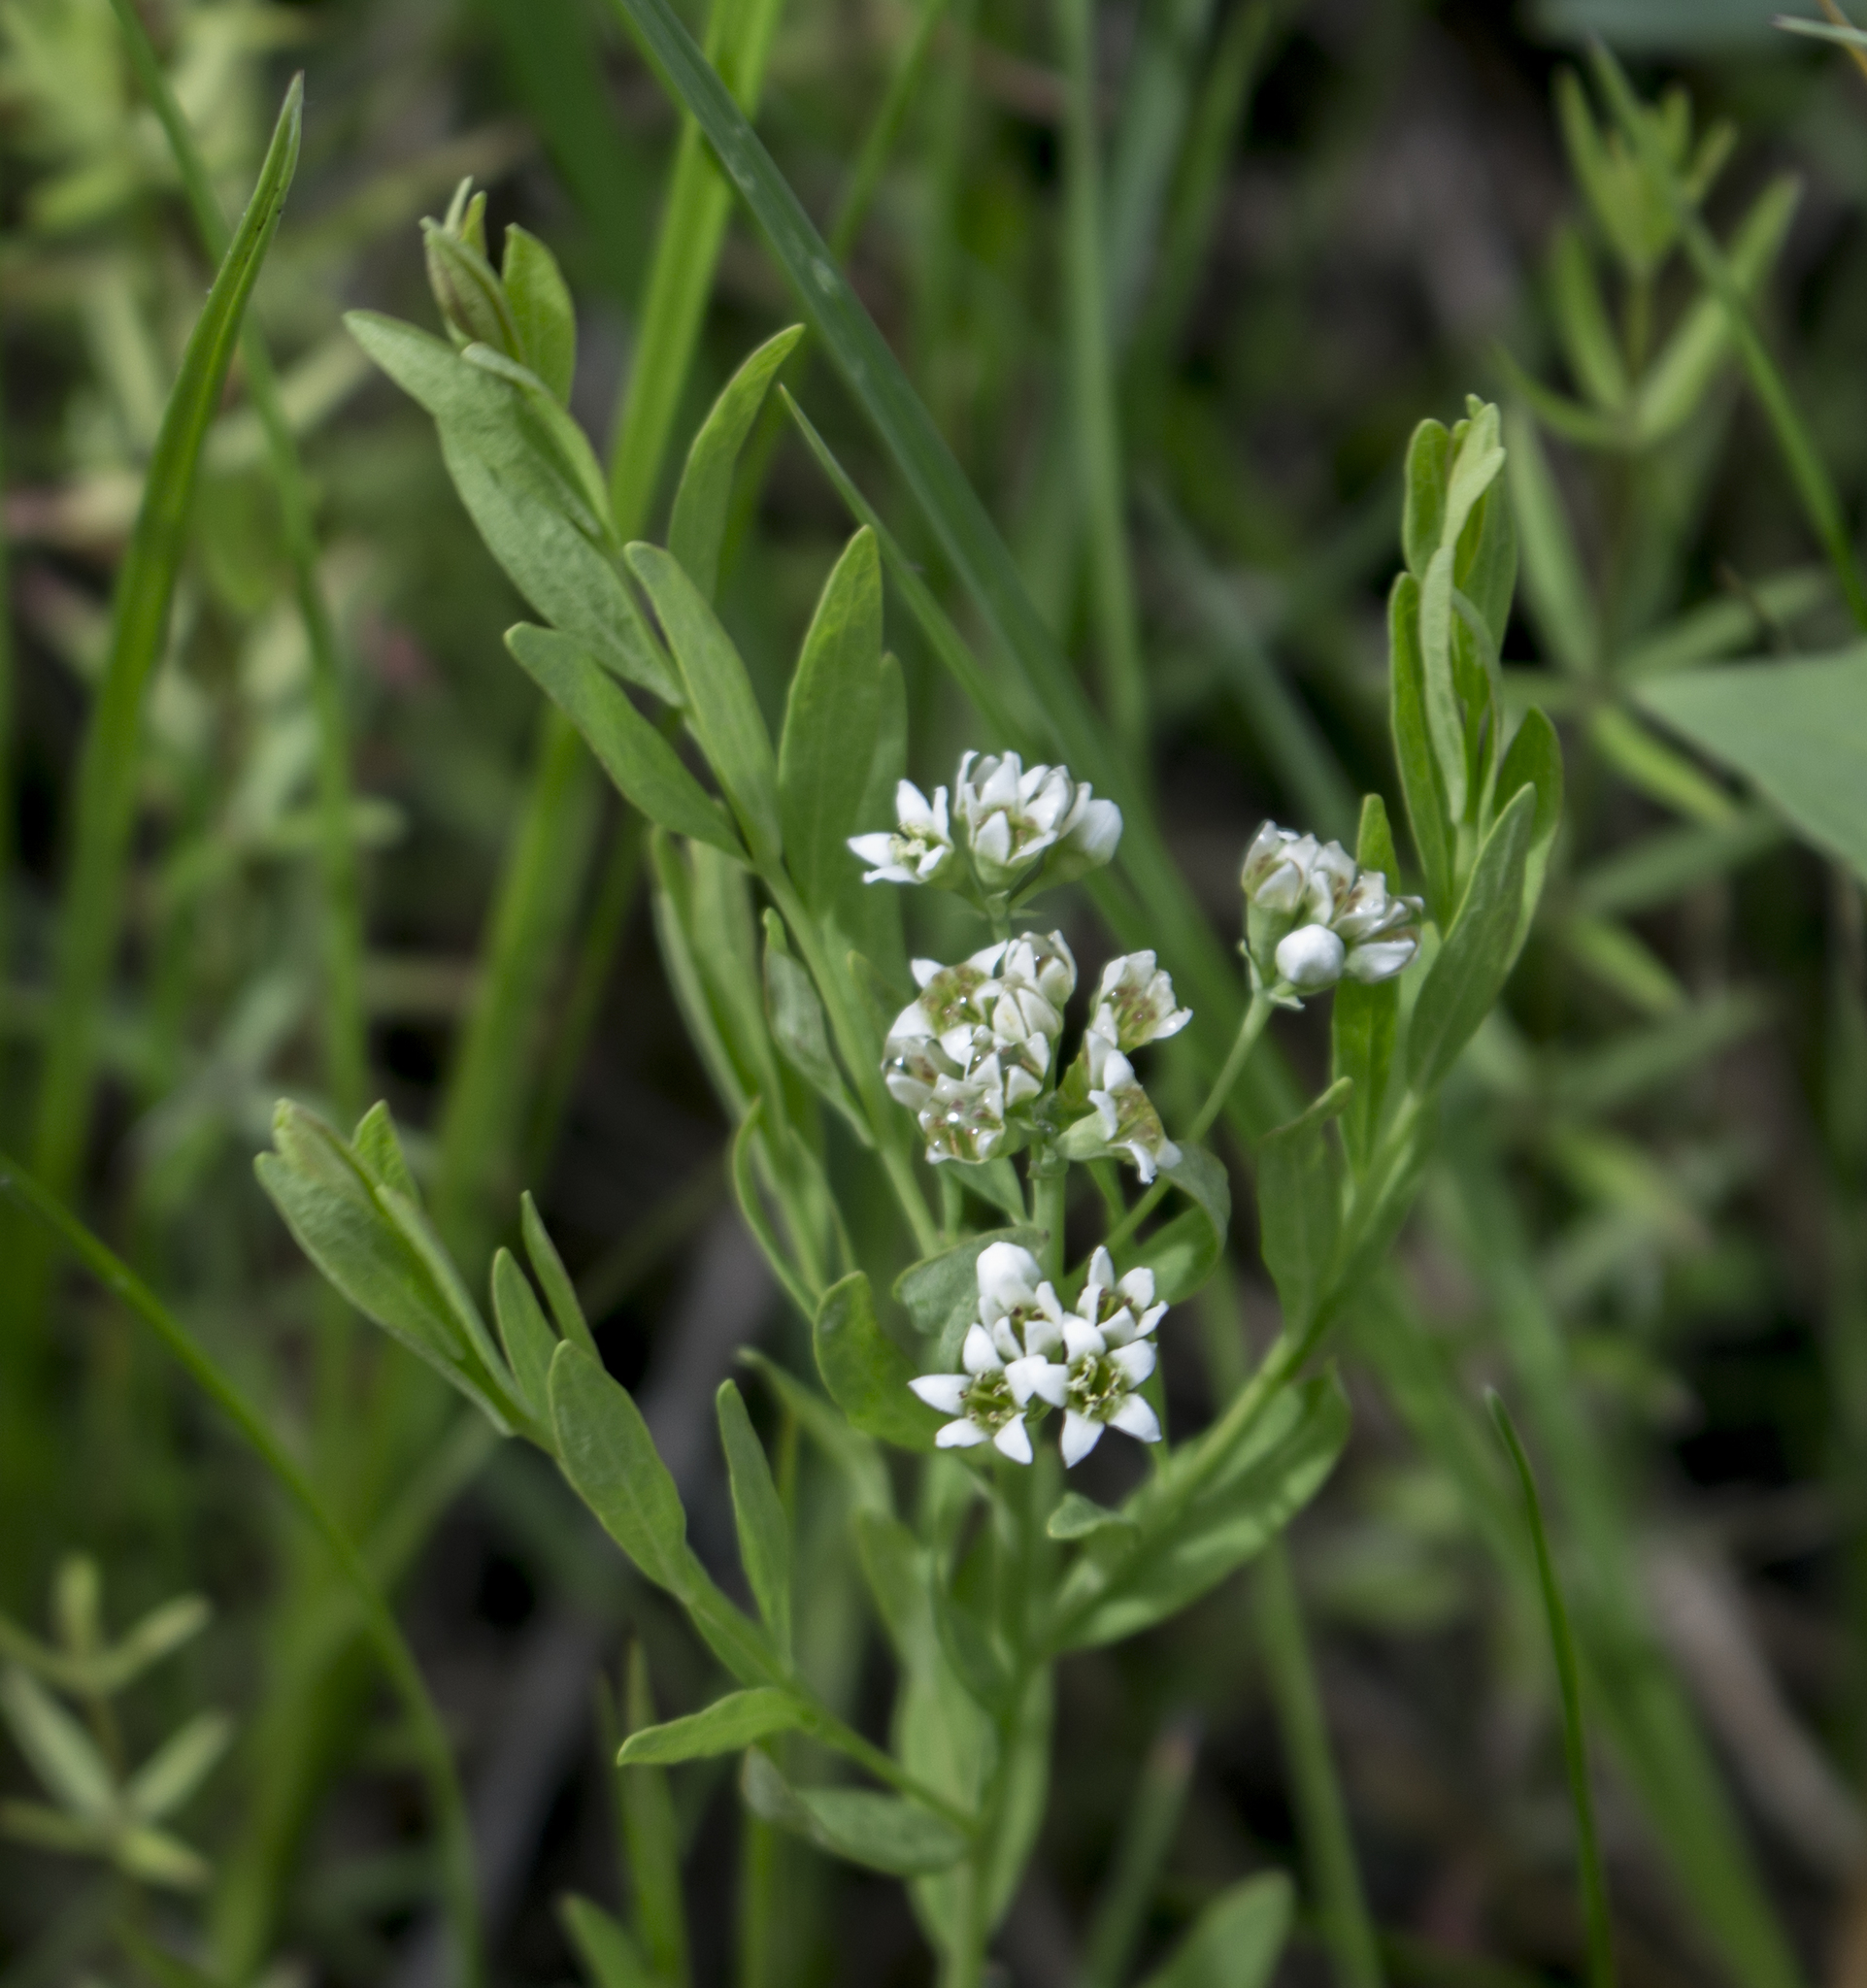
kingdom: Plantae
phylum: Tracheophyta
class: Magnoliopsida
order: Santalales
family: Comandraceae
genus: Comandra
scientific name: Comandra umbellata
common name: Bastard toadflax
